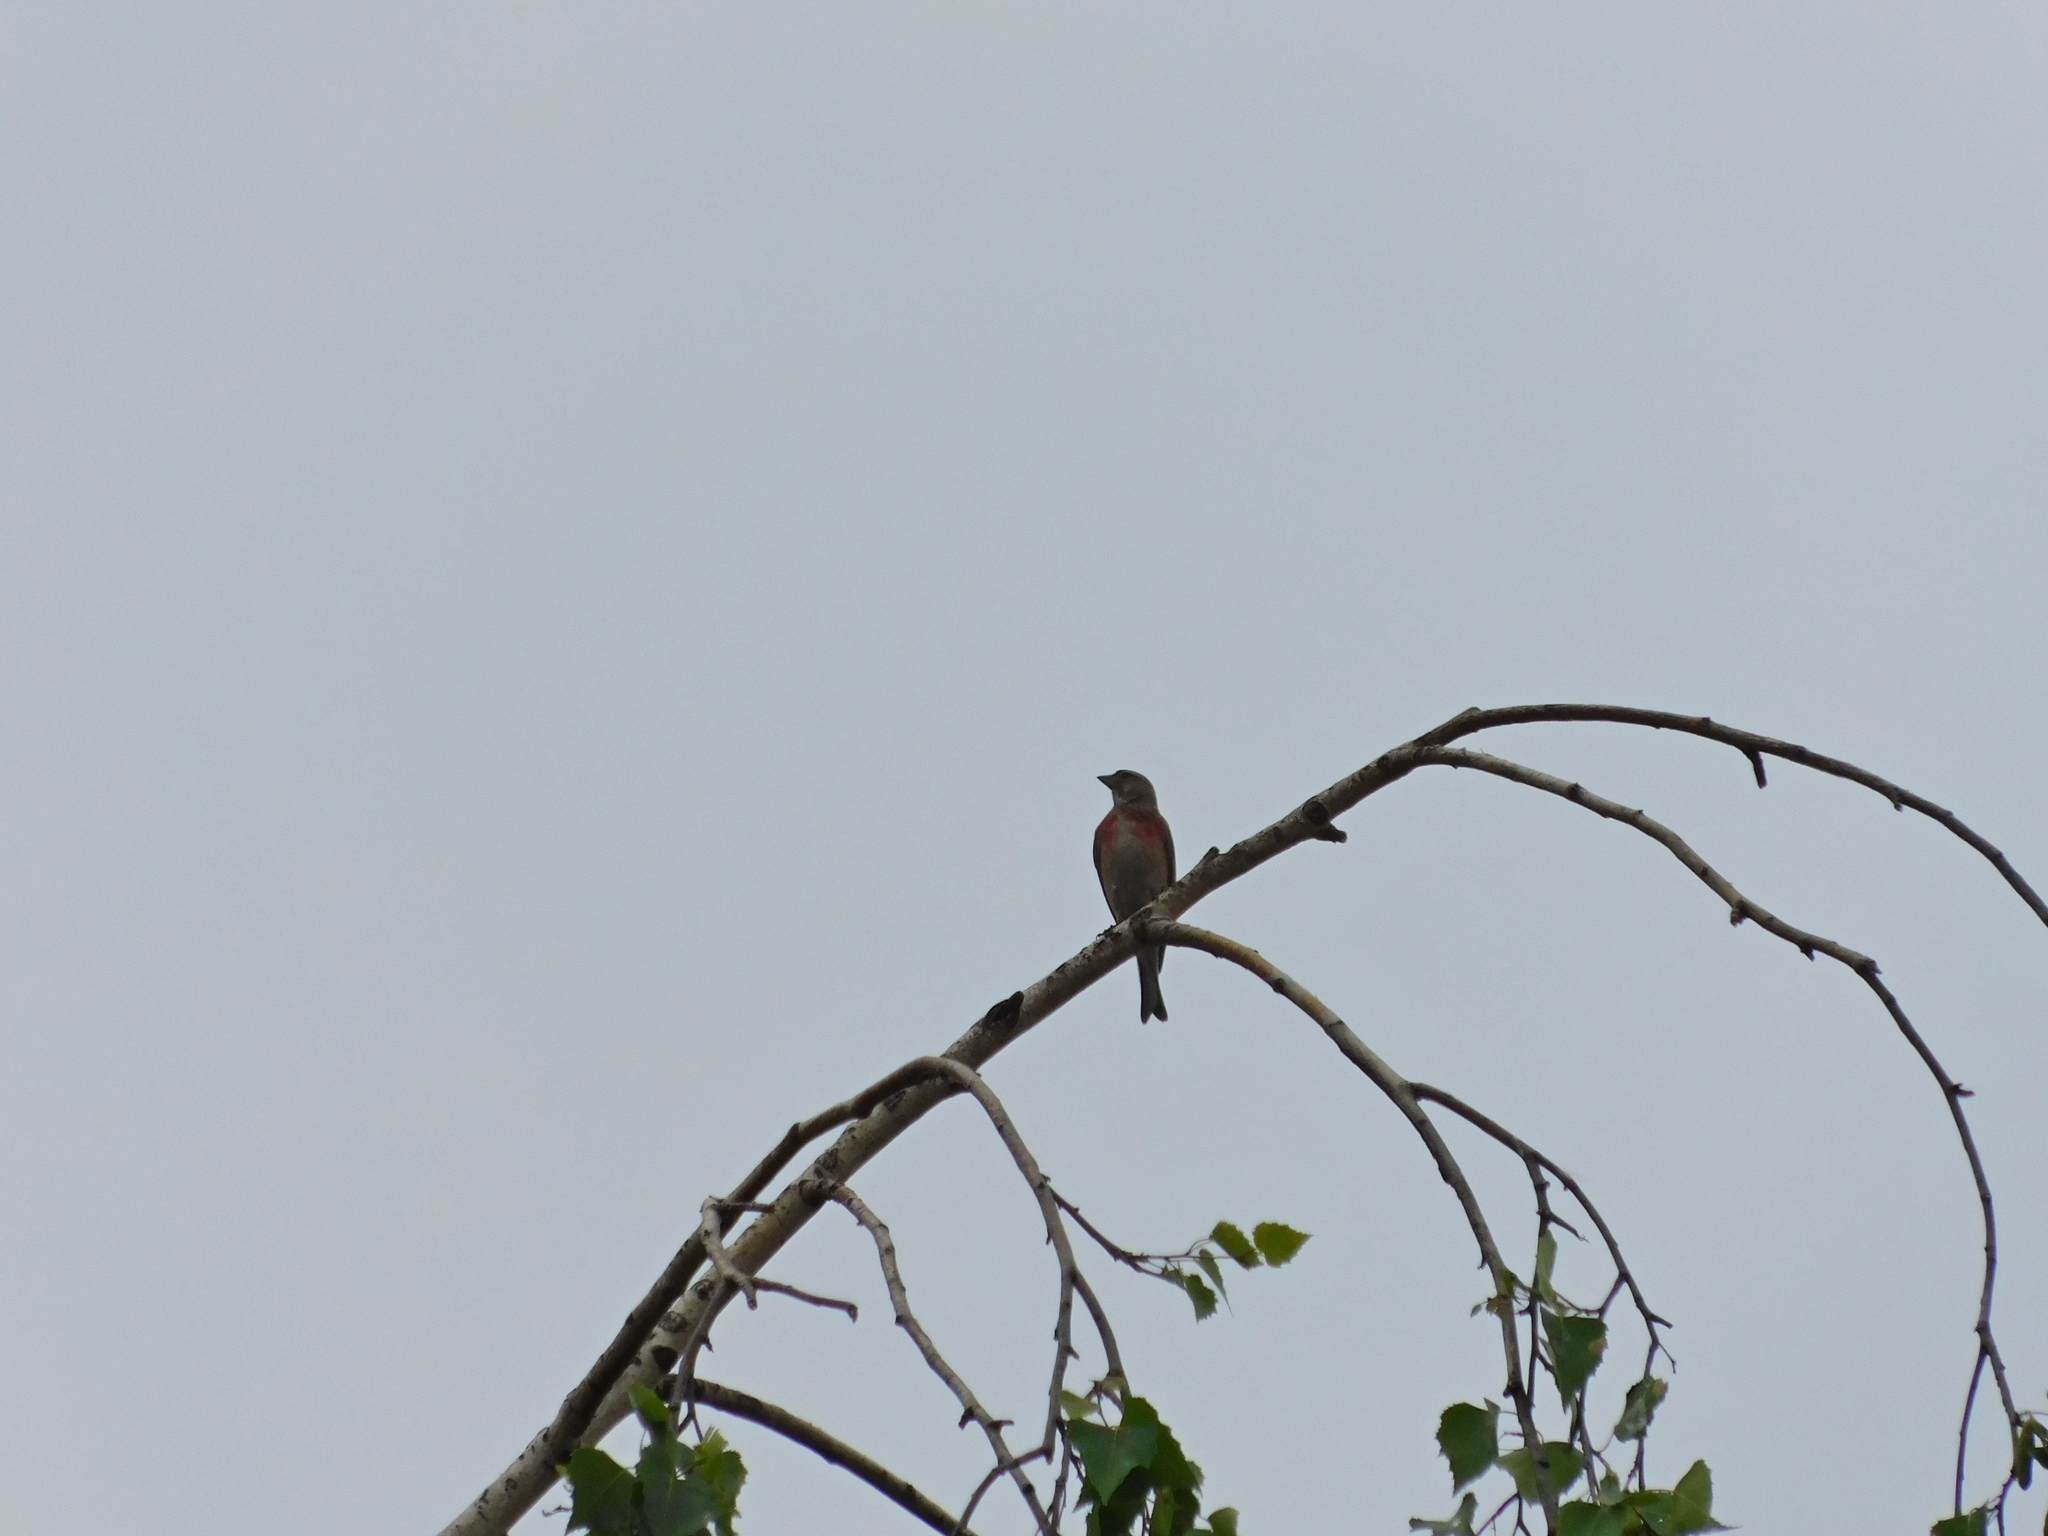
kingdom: Animalia
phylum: Chordata
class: Aves
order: Passeriformes
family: Fringillidae
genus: Linaria
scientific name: Linaria cannabina
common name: Common linnet
